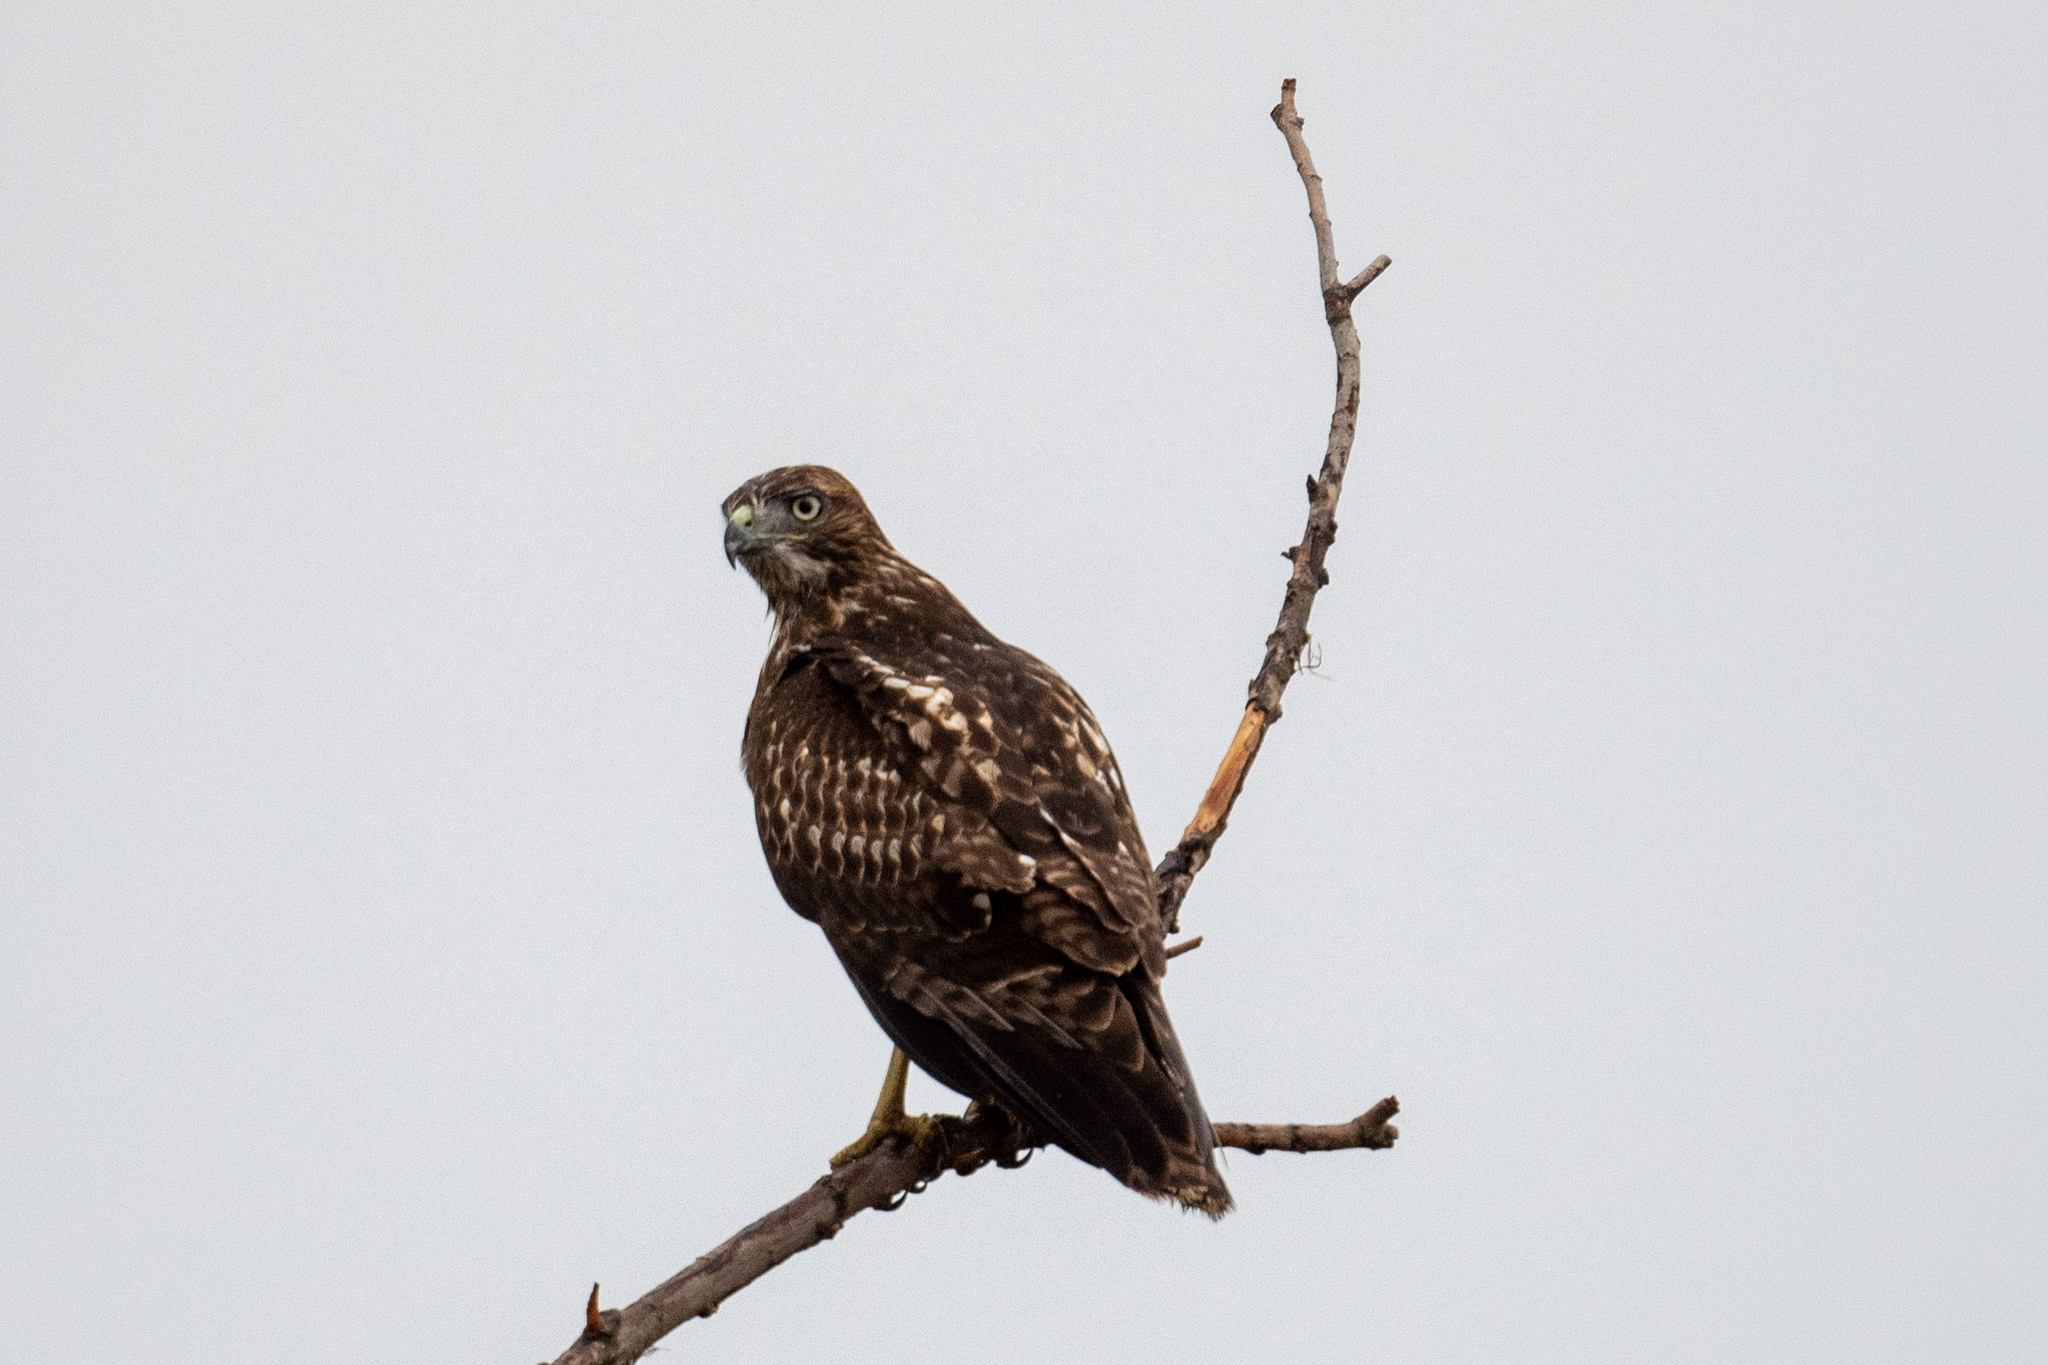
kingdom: Animalia
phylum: Chordata
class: Aves
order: Accipitriformes
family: Accipitridae
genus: Buteo
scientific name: Buteo jamaicensis
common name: Red-tailed hawk
